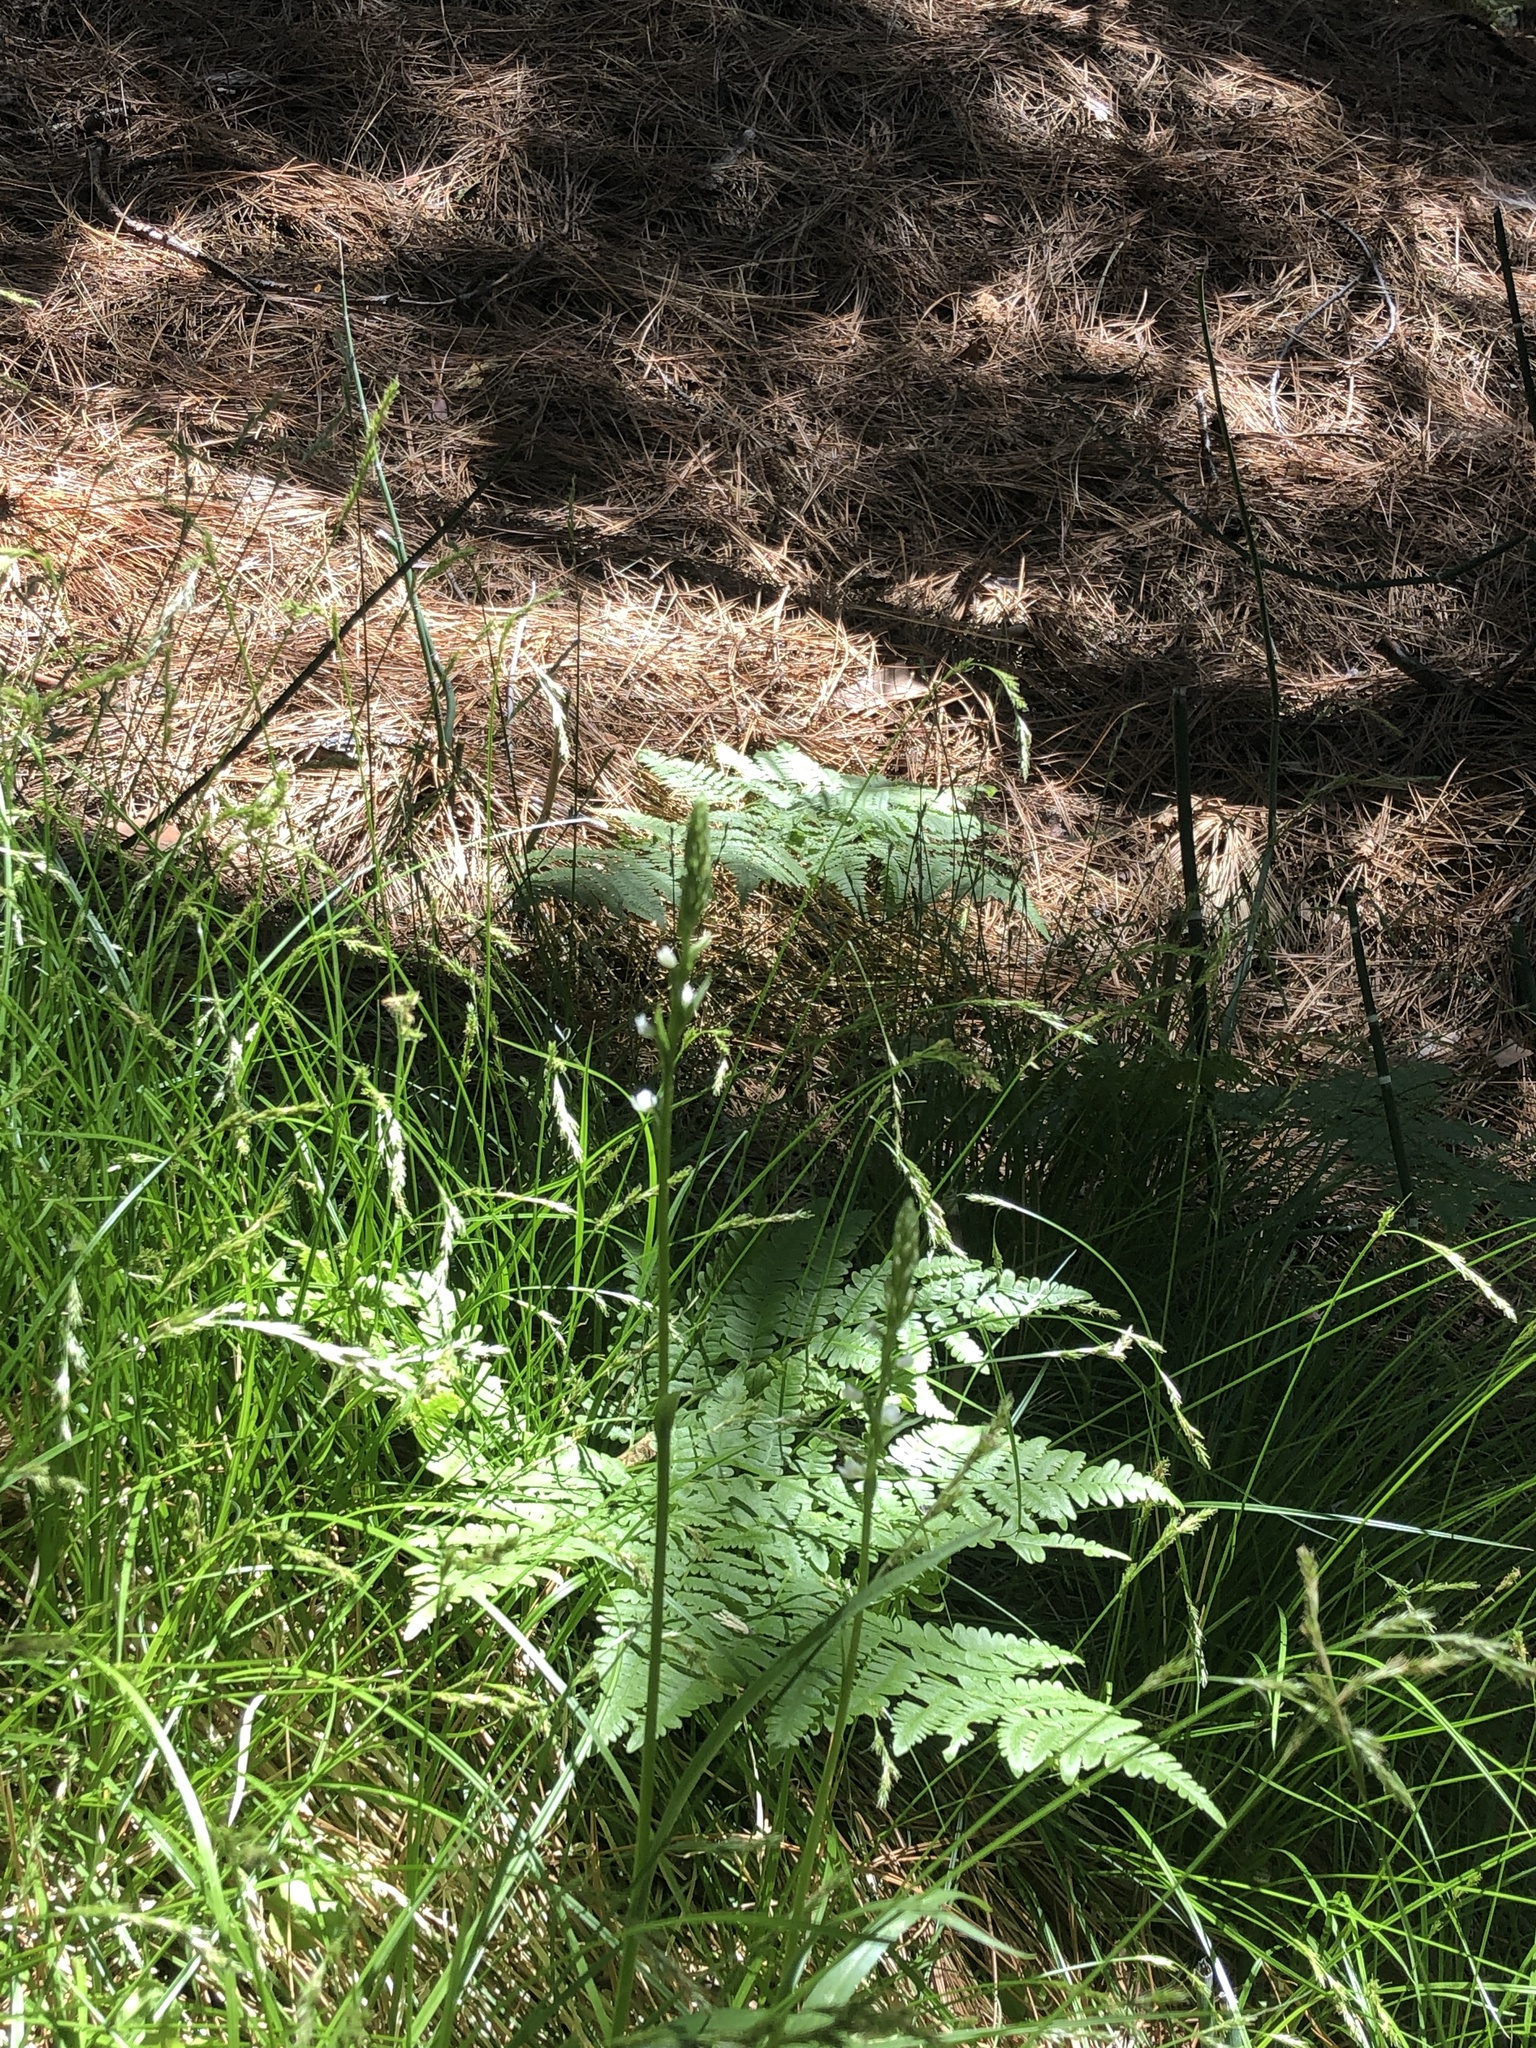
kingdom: Plantae
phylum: Tracheophyta
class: Liliopsida
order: Asparagales
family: Orchidaceae
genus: Platanthera
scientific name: Platanthera dilatata
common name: Bog candles
